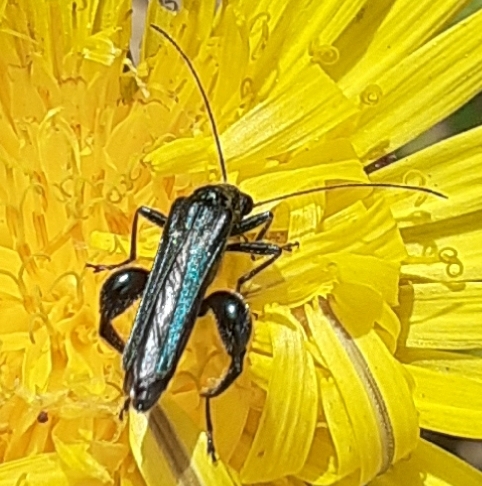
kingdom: Animalia
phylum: Arthropoda
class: Insecta
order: Coleoptera
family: Oedemeridae
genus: Oedemera
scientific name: Oedemera nobilis
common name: Swollen-thighed beetle
